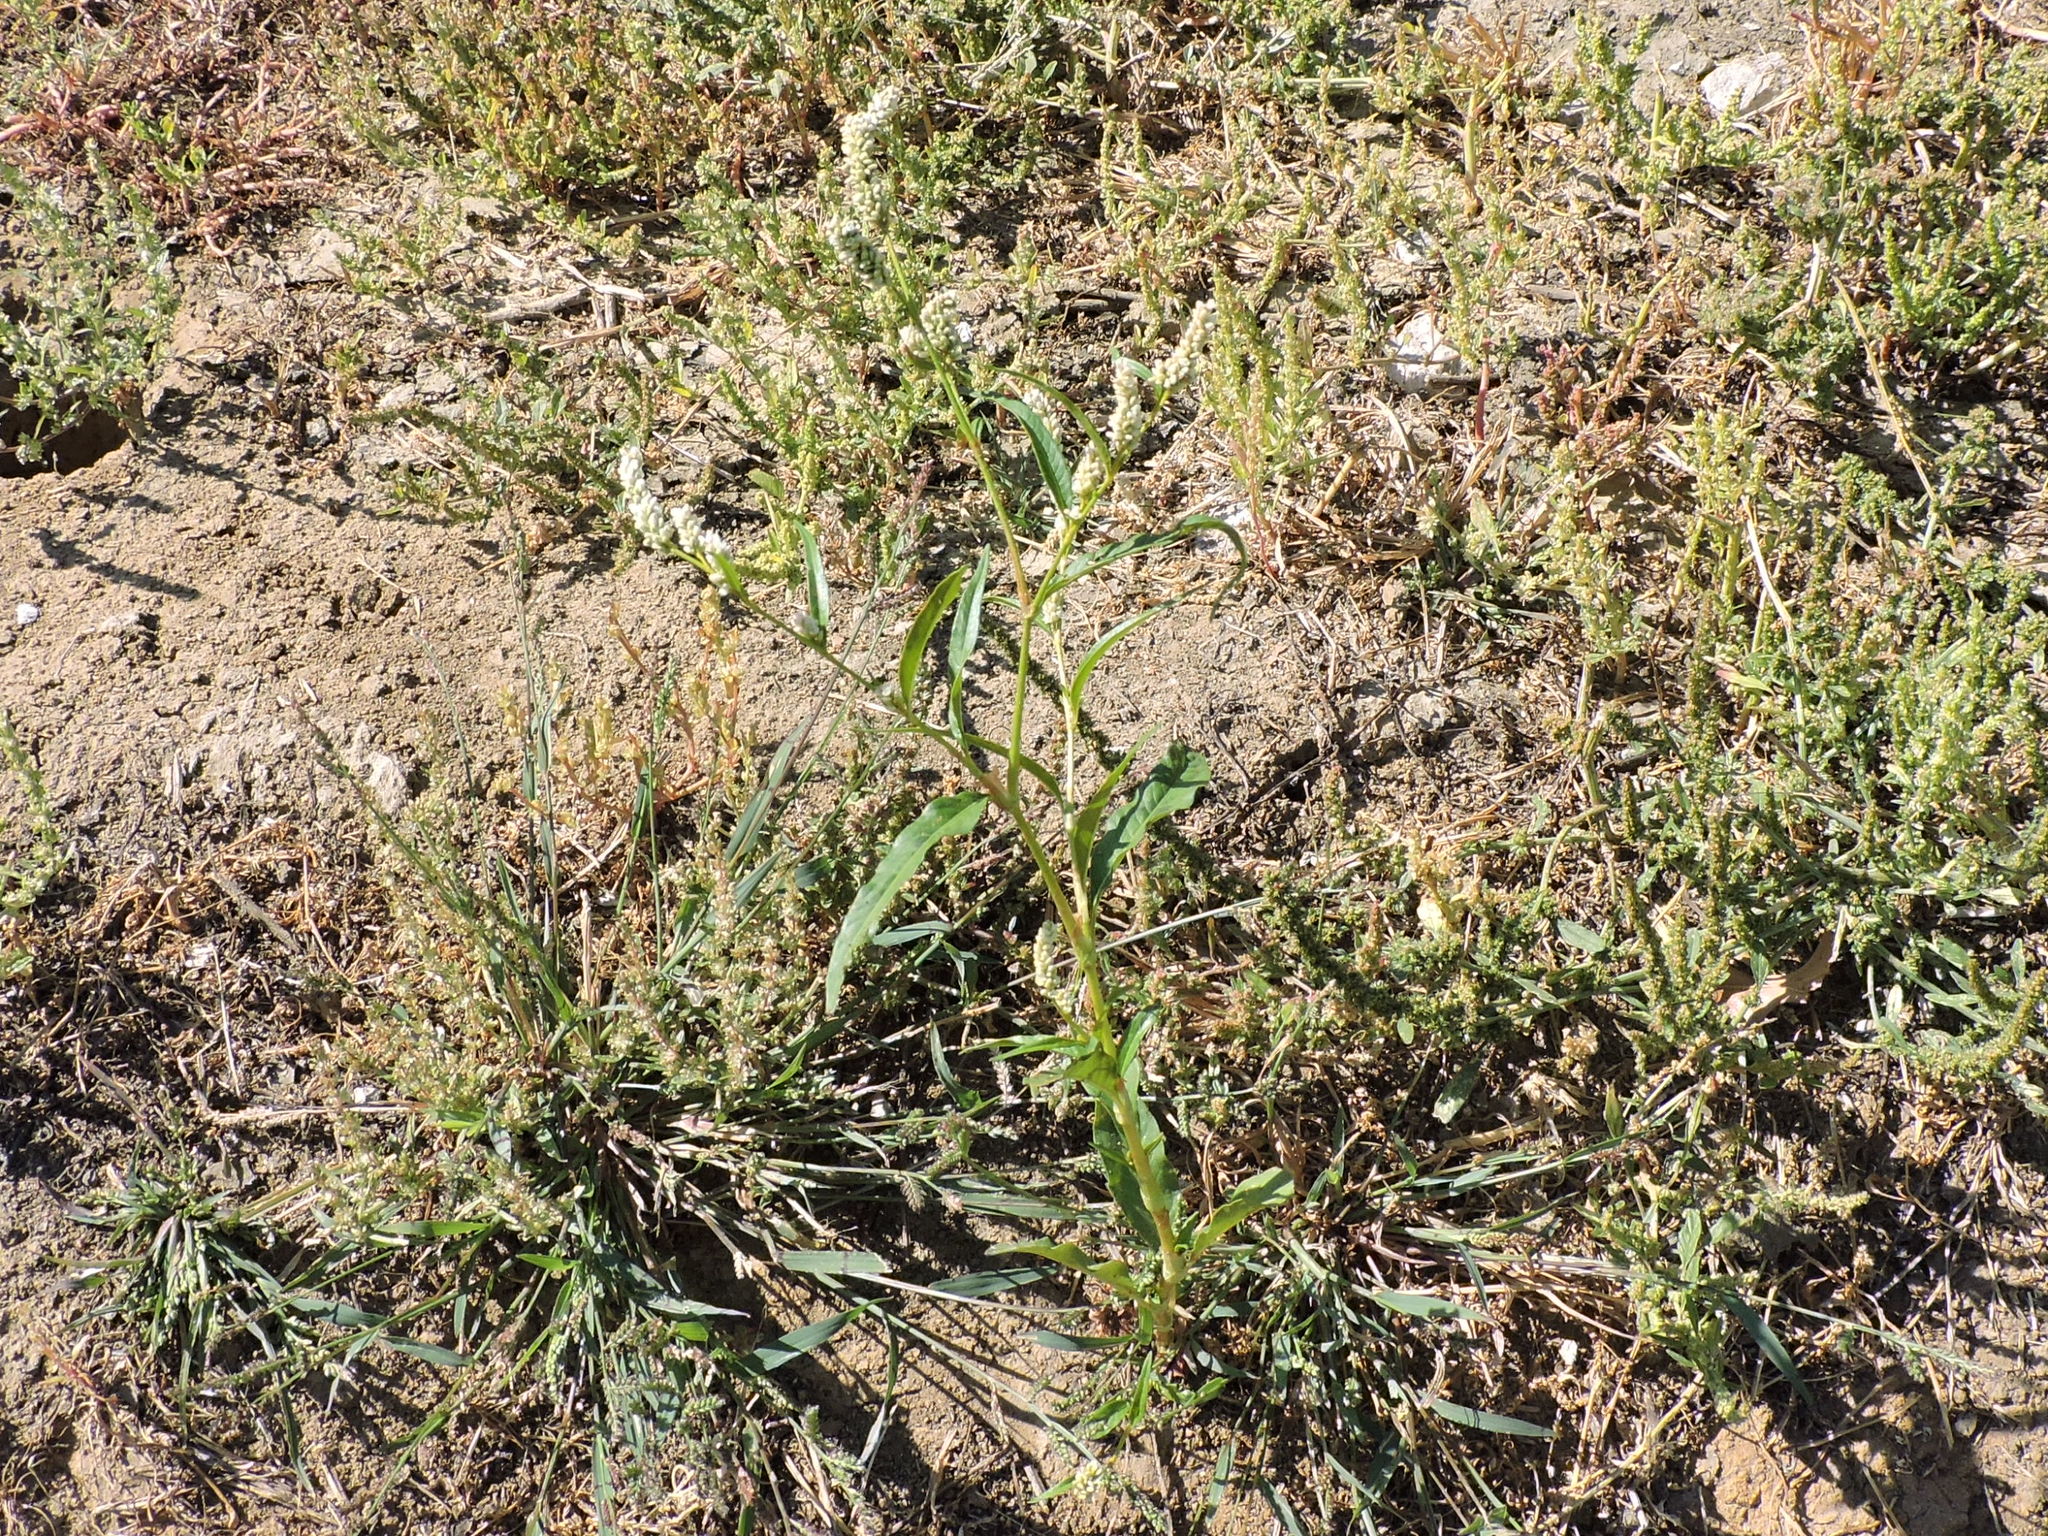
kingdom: Plantae
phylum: Tracheophyta
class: Magnoliopsida
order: Caryophyllales
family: Polygonaceae
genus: Persicaria
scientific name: Persicaria lapathifolia
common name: Curlytop knotweed
